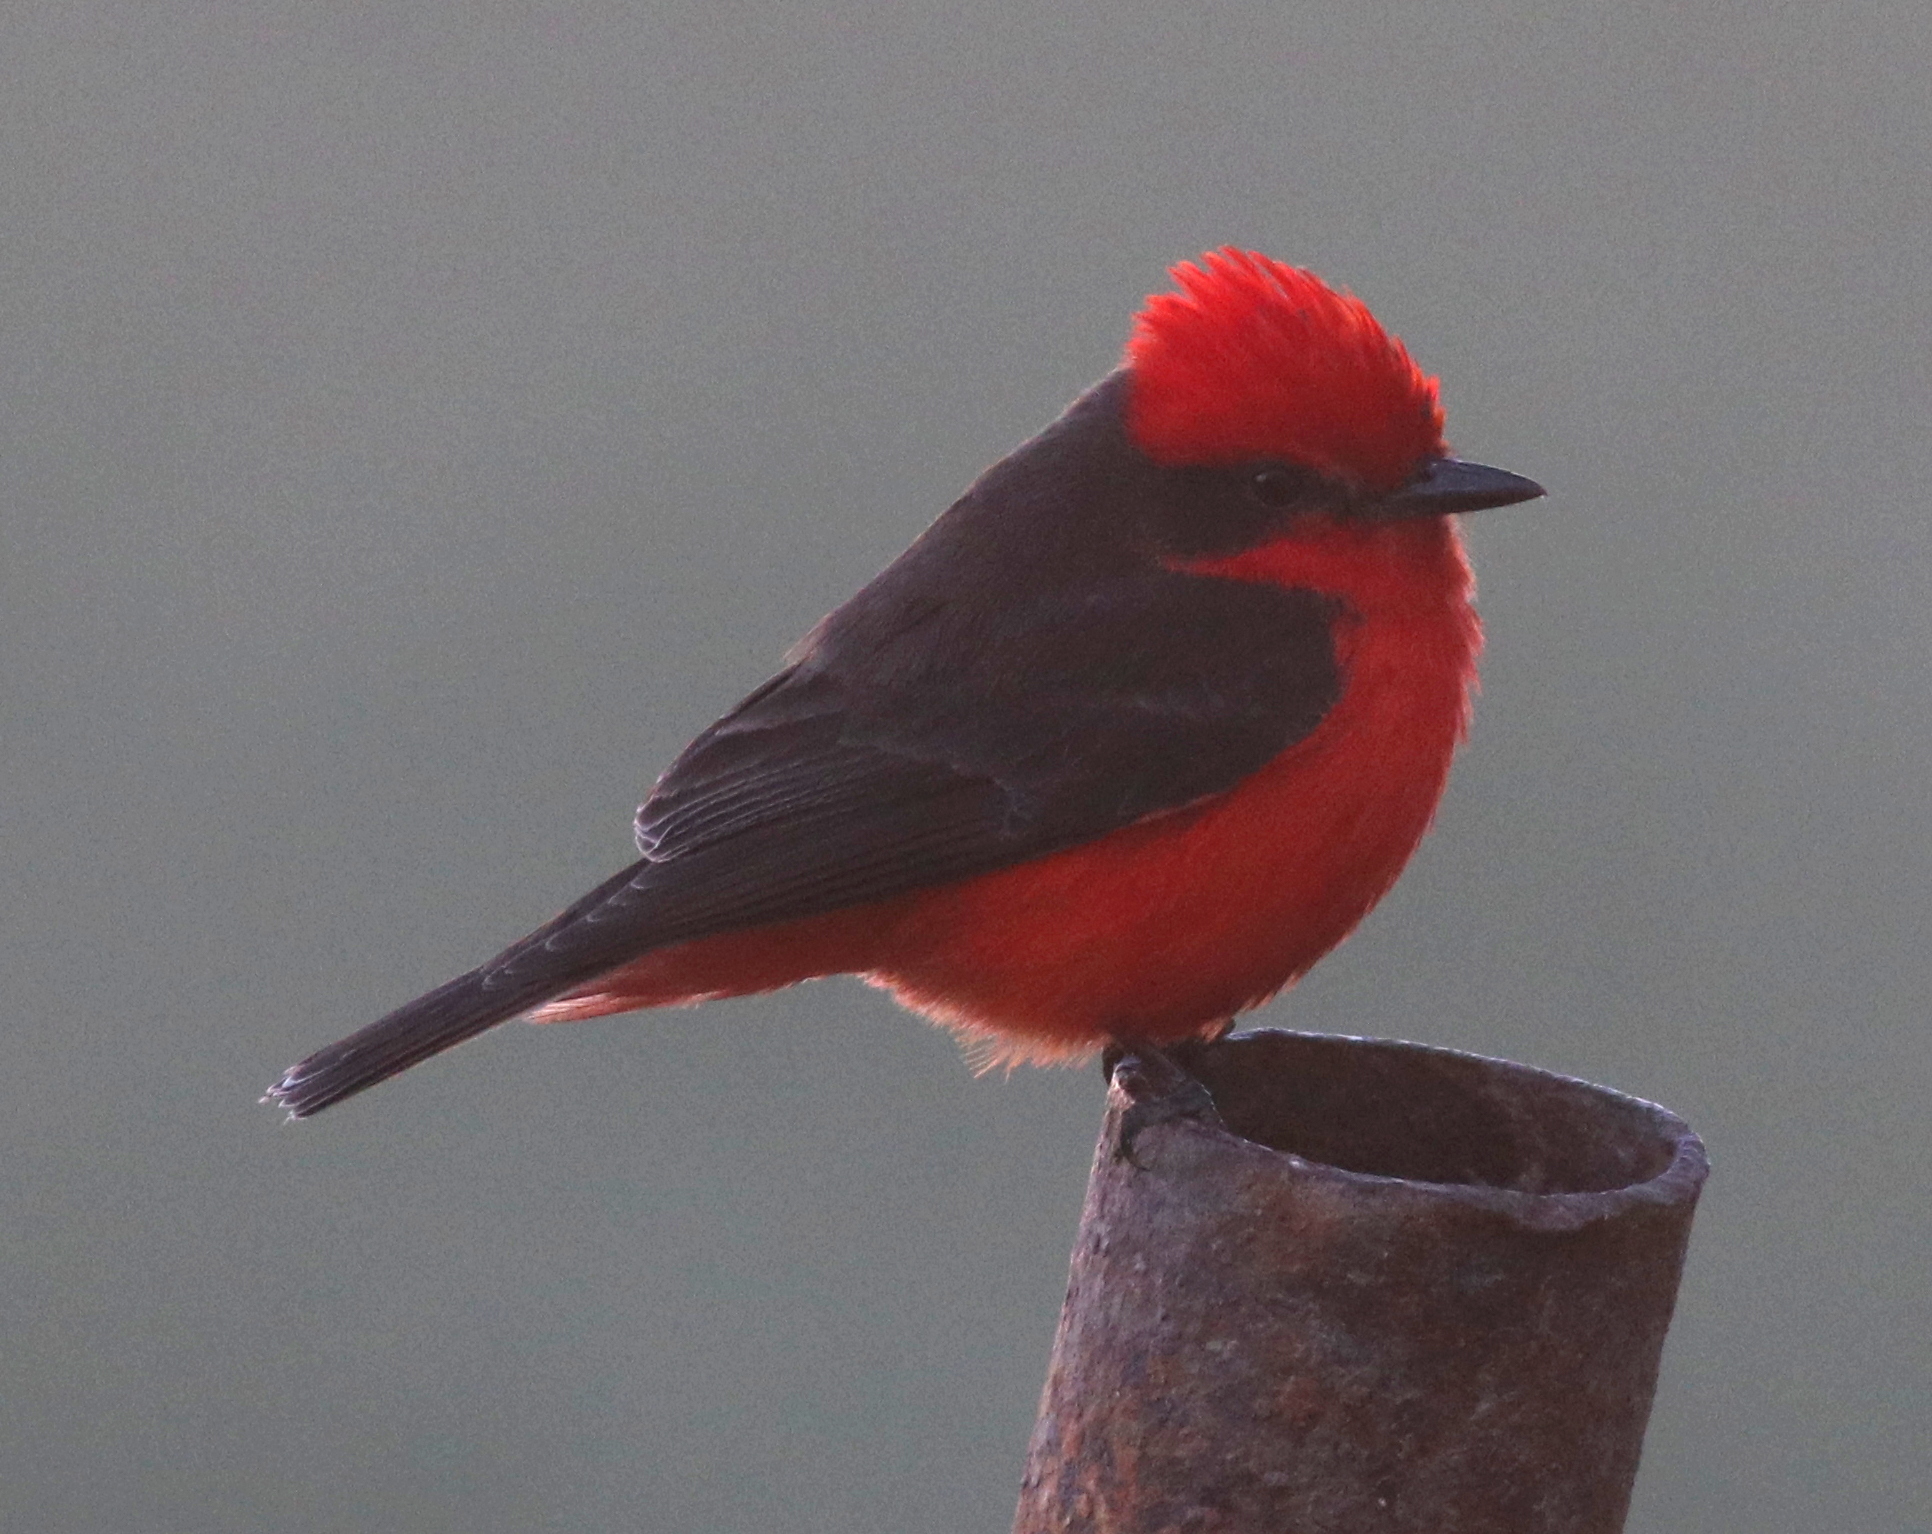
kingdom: Animalia
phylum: Chordata
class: Aves
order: Passeriformes
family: Tyrannidae
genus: Pyrocephalus
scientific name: Pyrocephalus rubinus
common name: Vermilion flycatcher
